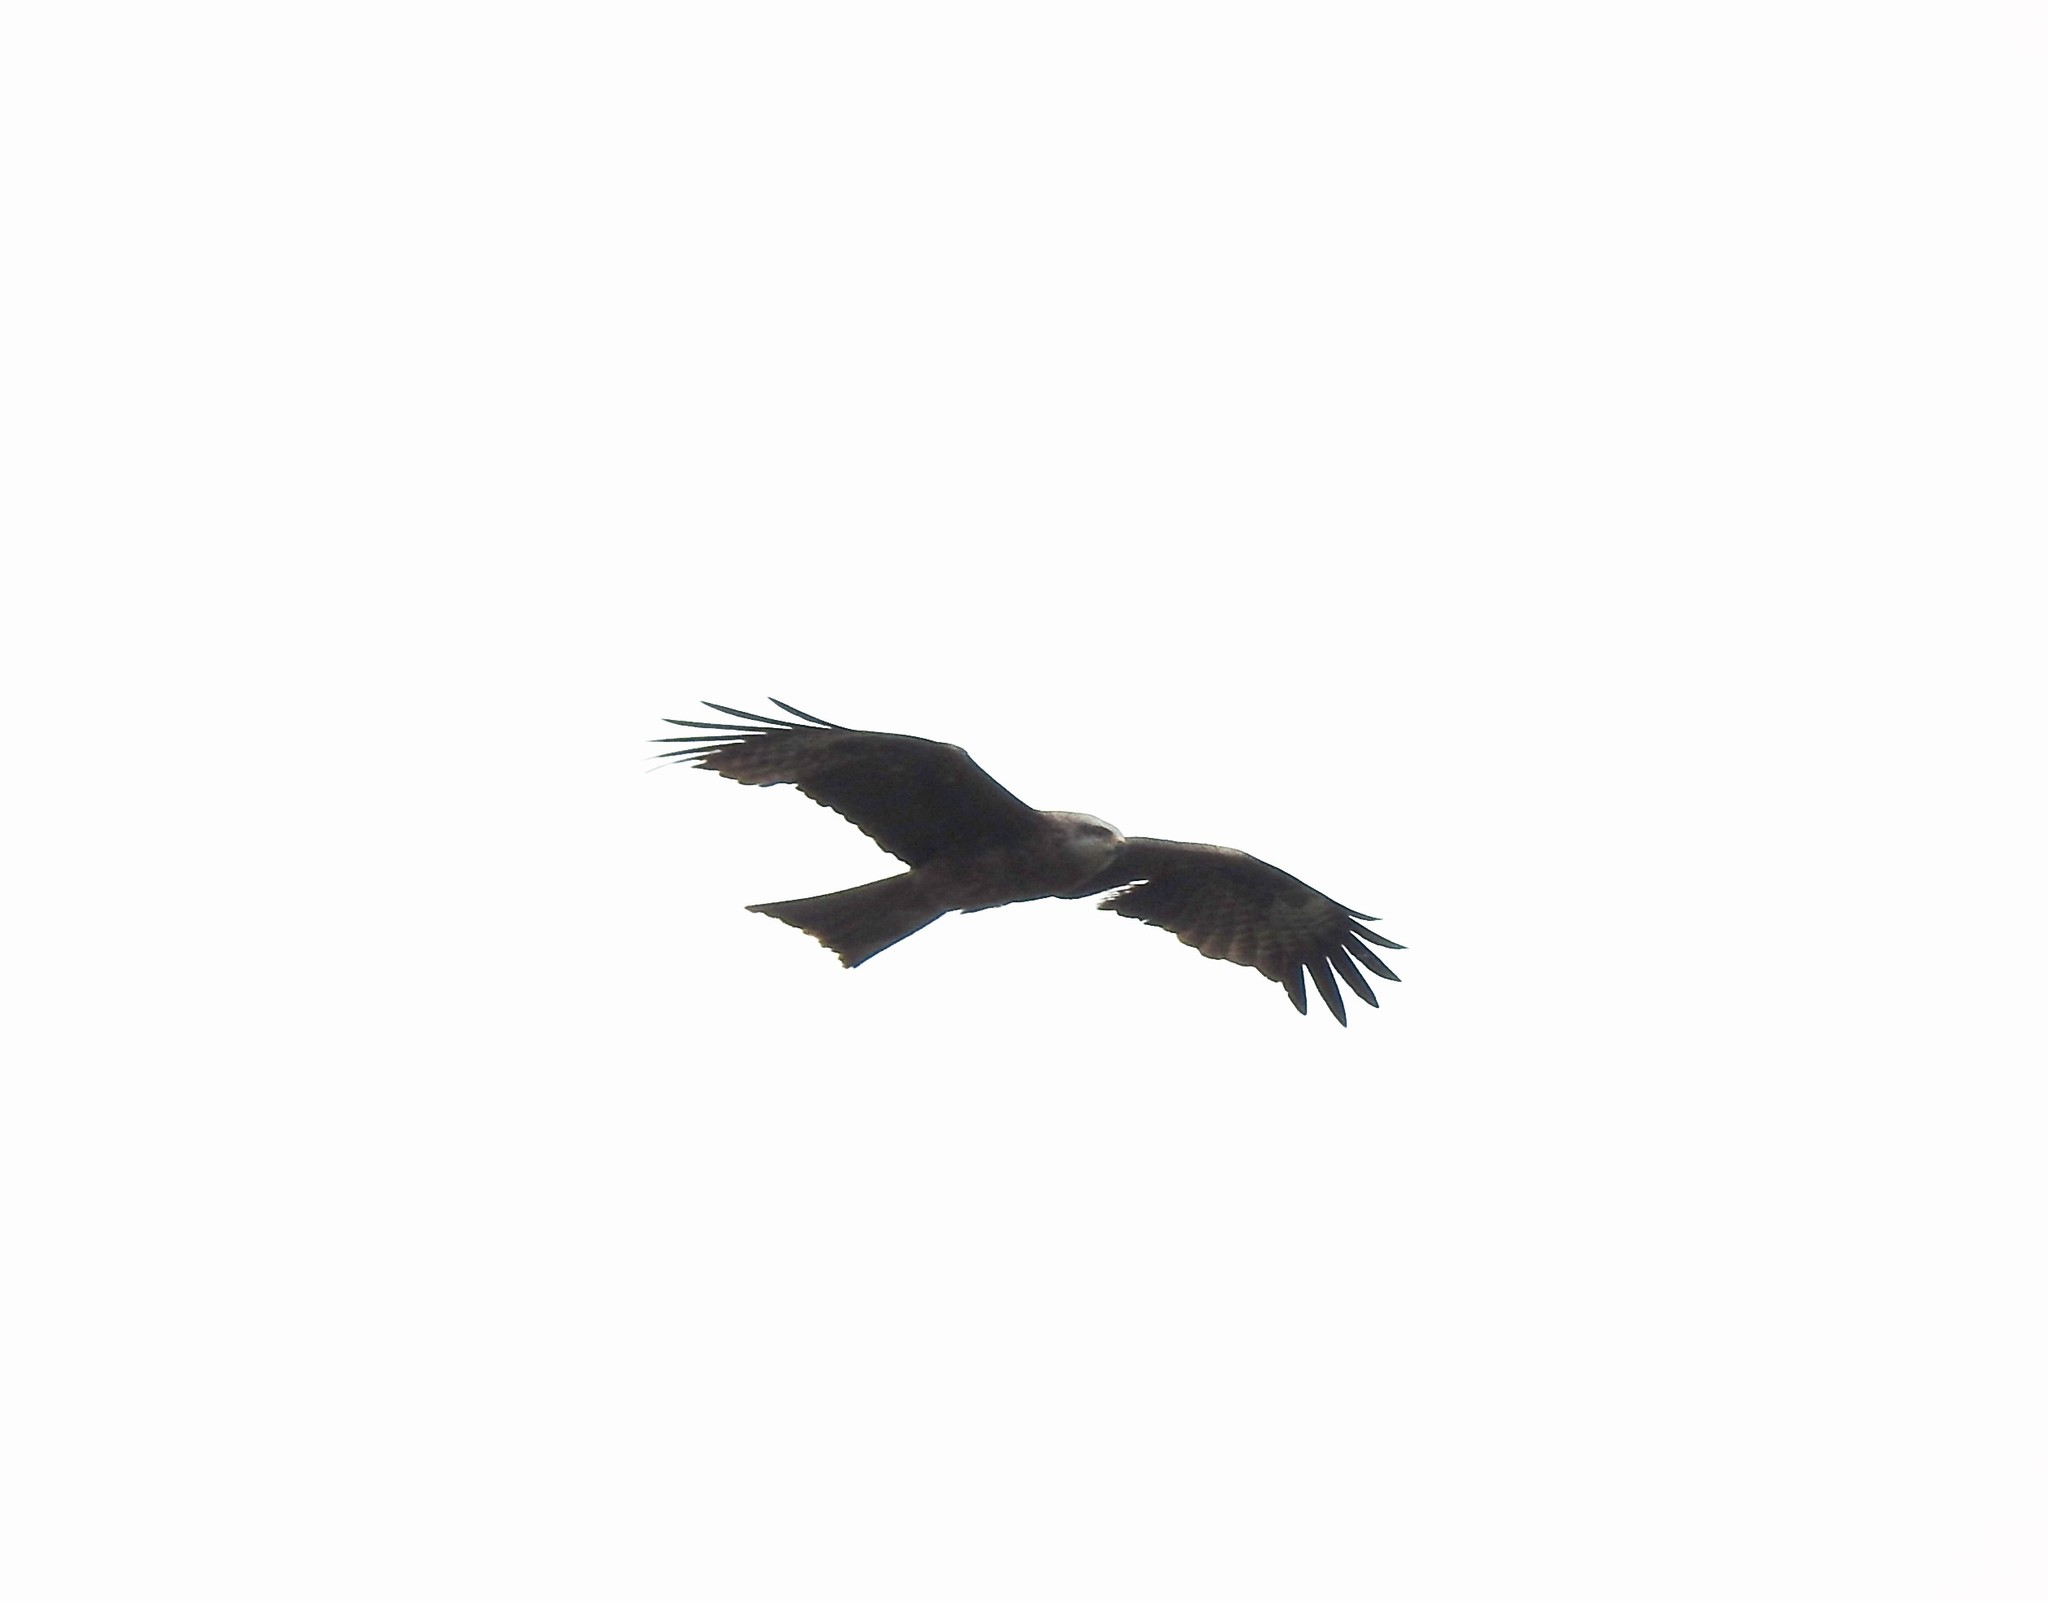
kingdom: Animalia
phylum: Chordata
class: Aves
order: Accipitriformes
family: Accipitridae
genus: Milvus
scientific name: Milvus migrans
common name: Black kite
